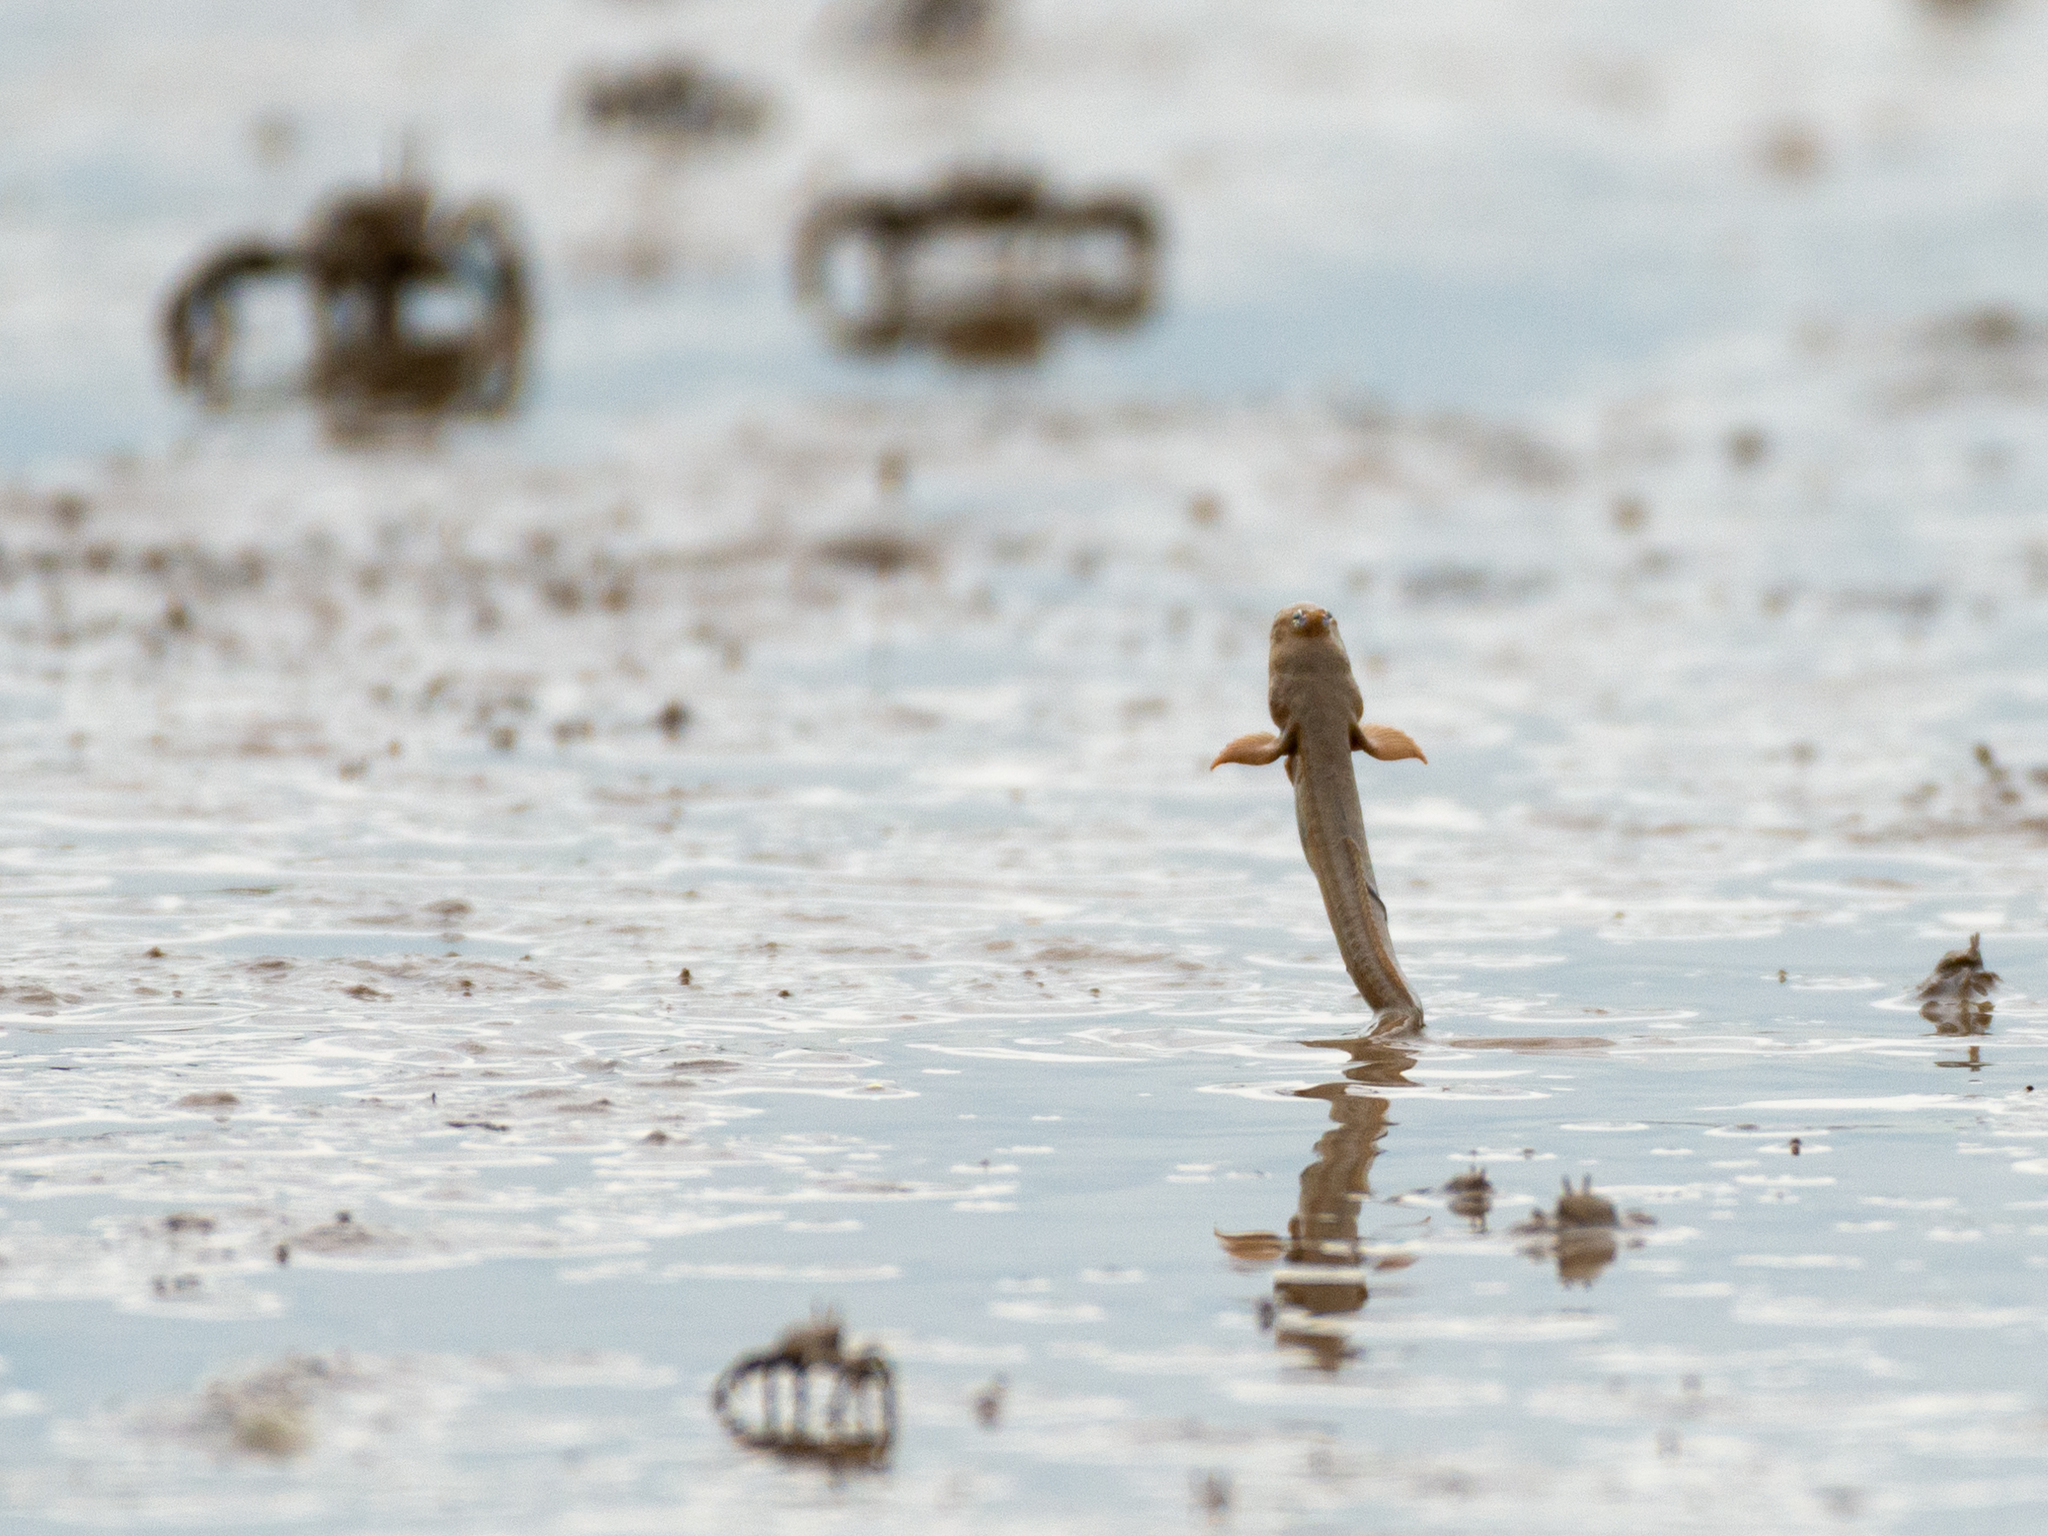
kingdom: Animalia
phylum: Chordata
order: Perciformes
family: Gobiidae
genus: Scartelaos
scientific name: Scartelaos histophorus
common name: Walking goby
